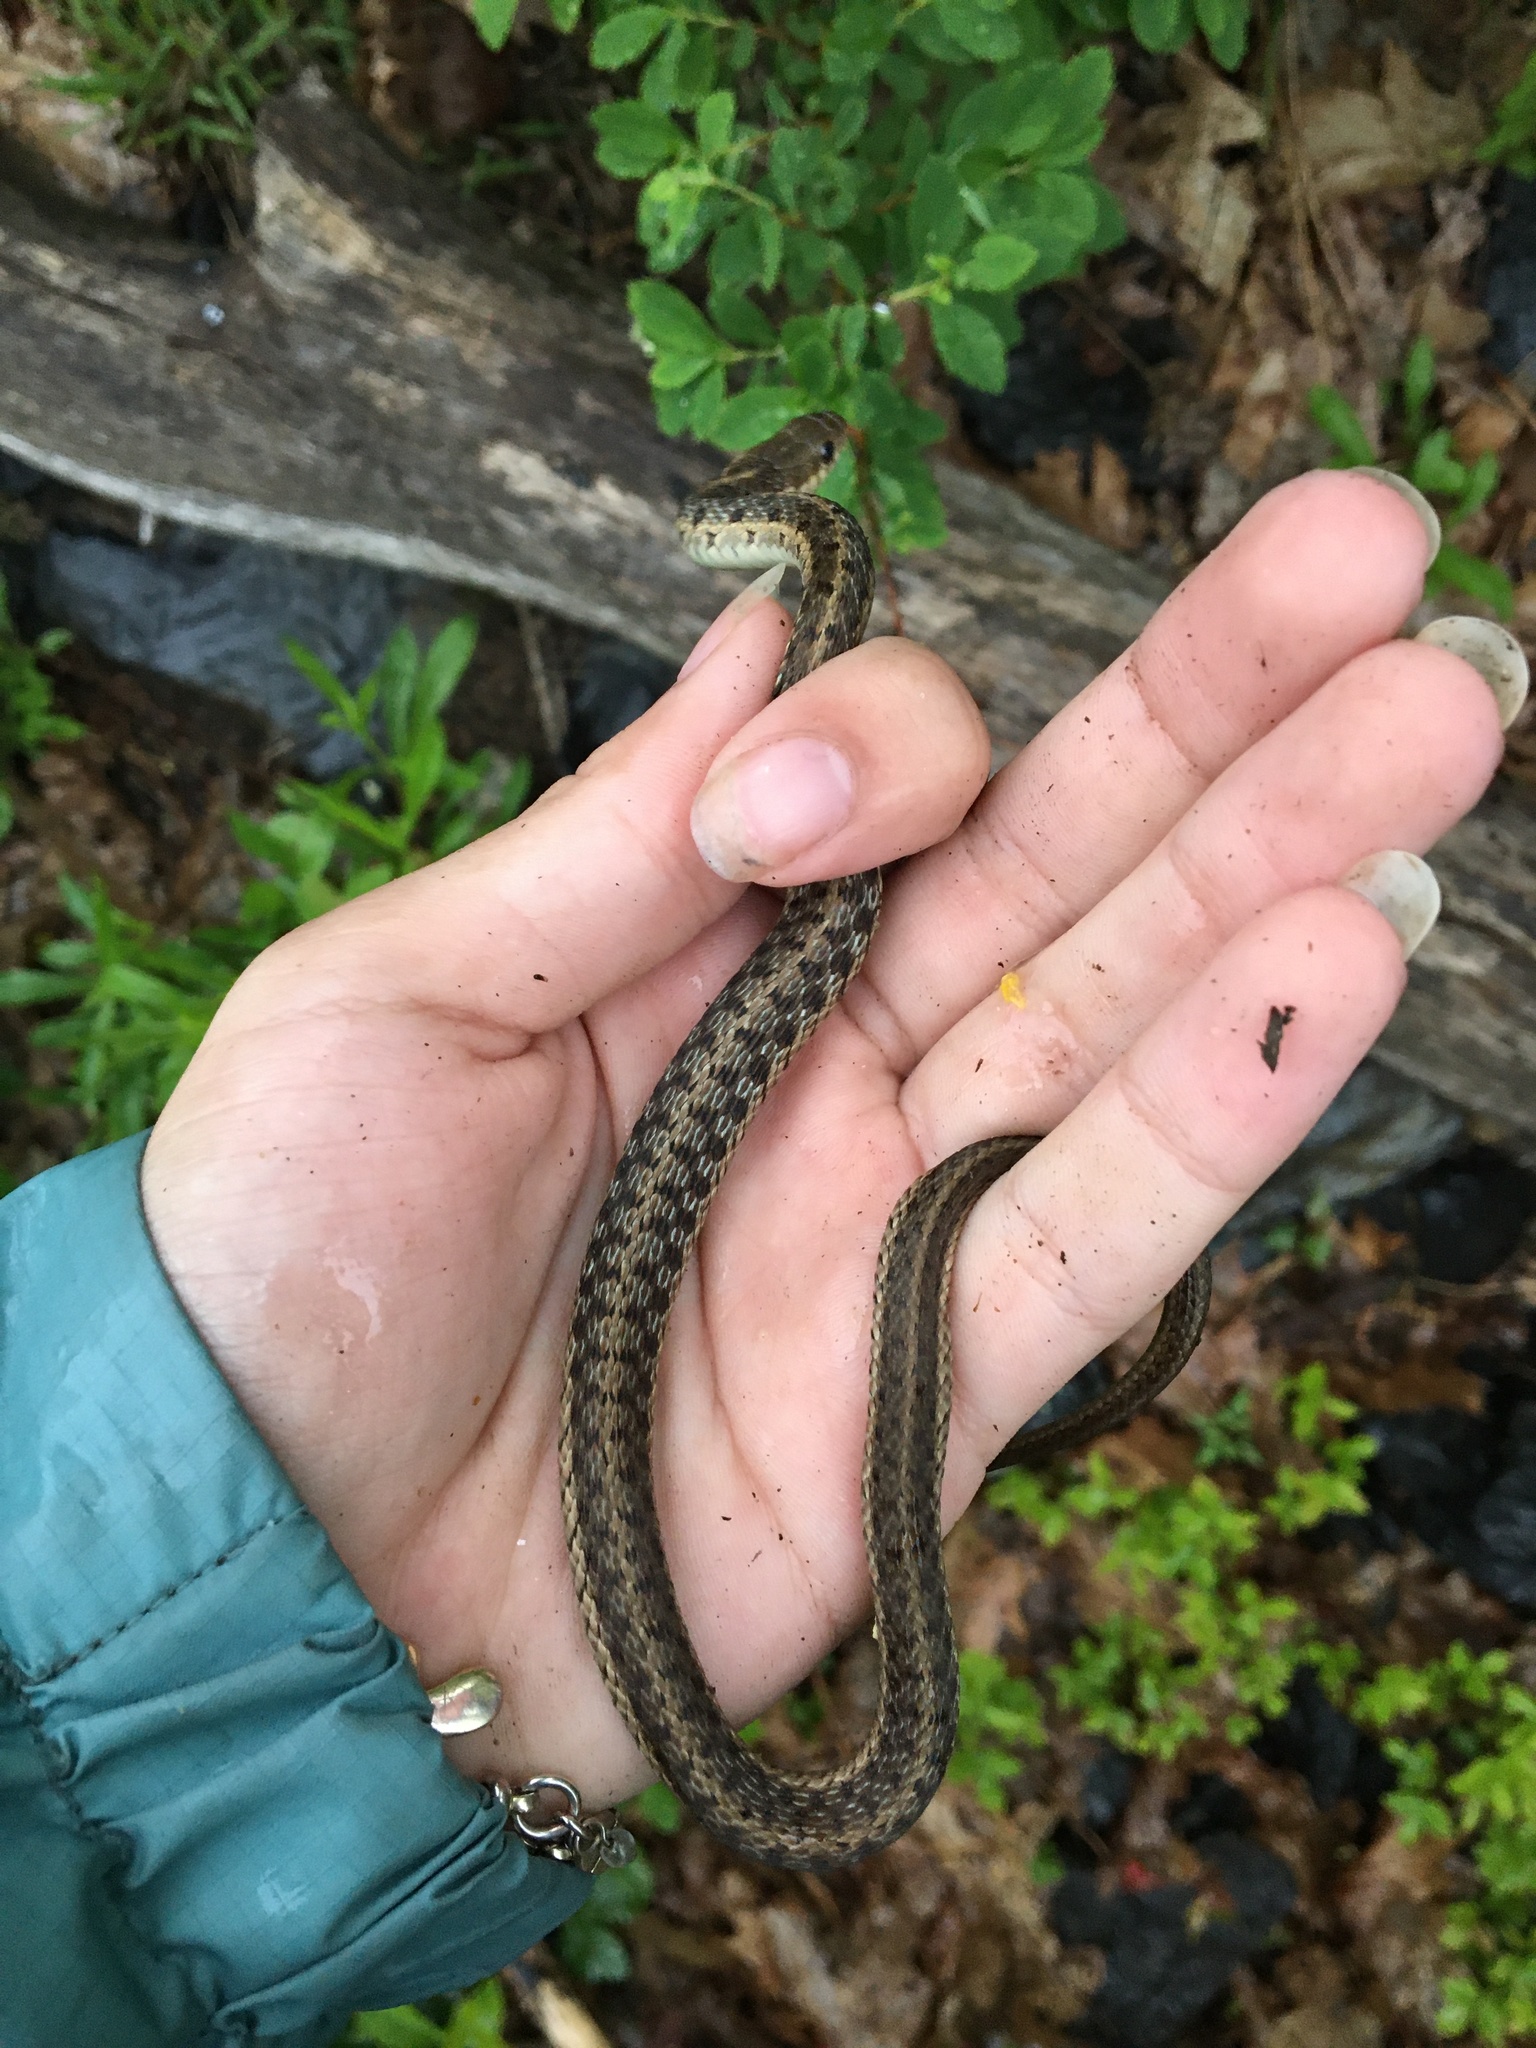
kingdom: Animalia
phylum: Chordata
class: Squamata
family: Colubridae
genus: Thamnophis
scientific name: Thamnophis sirtalis
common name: Common garter snake
